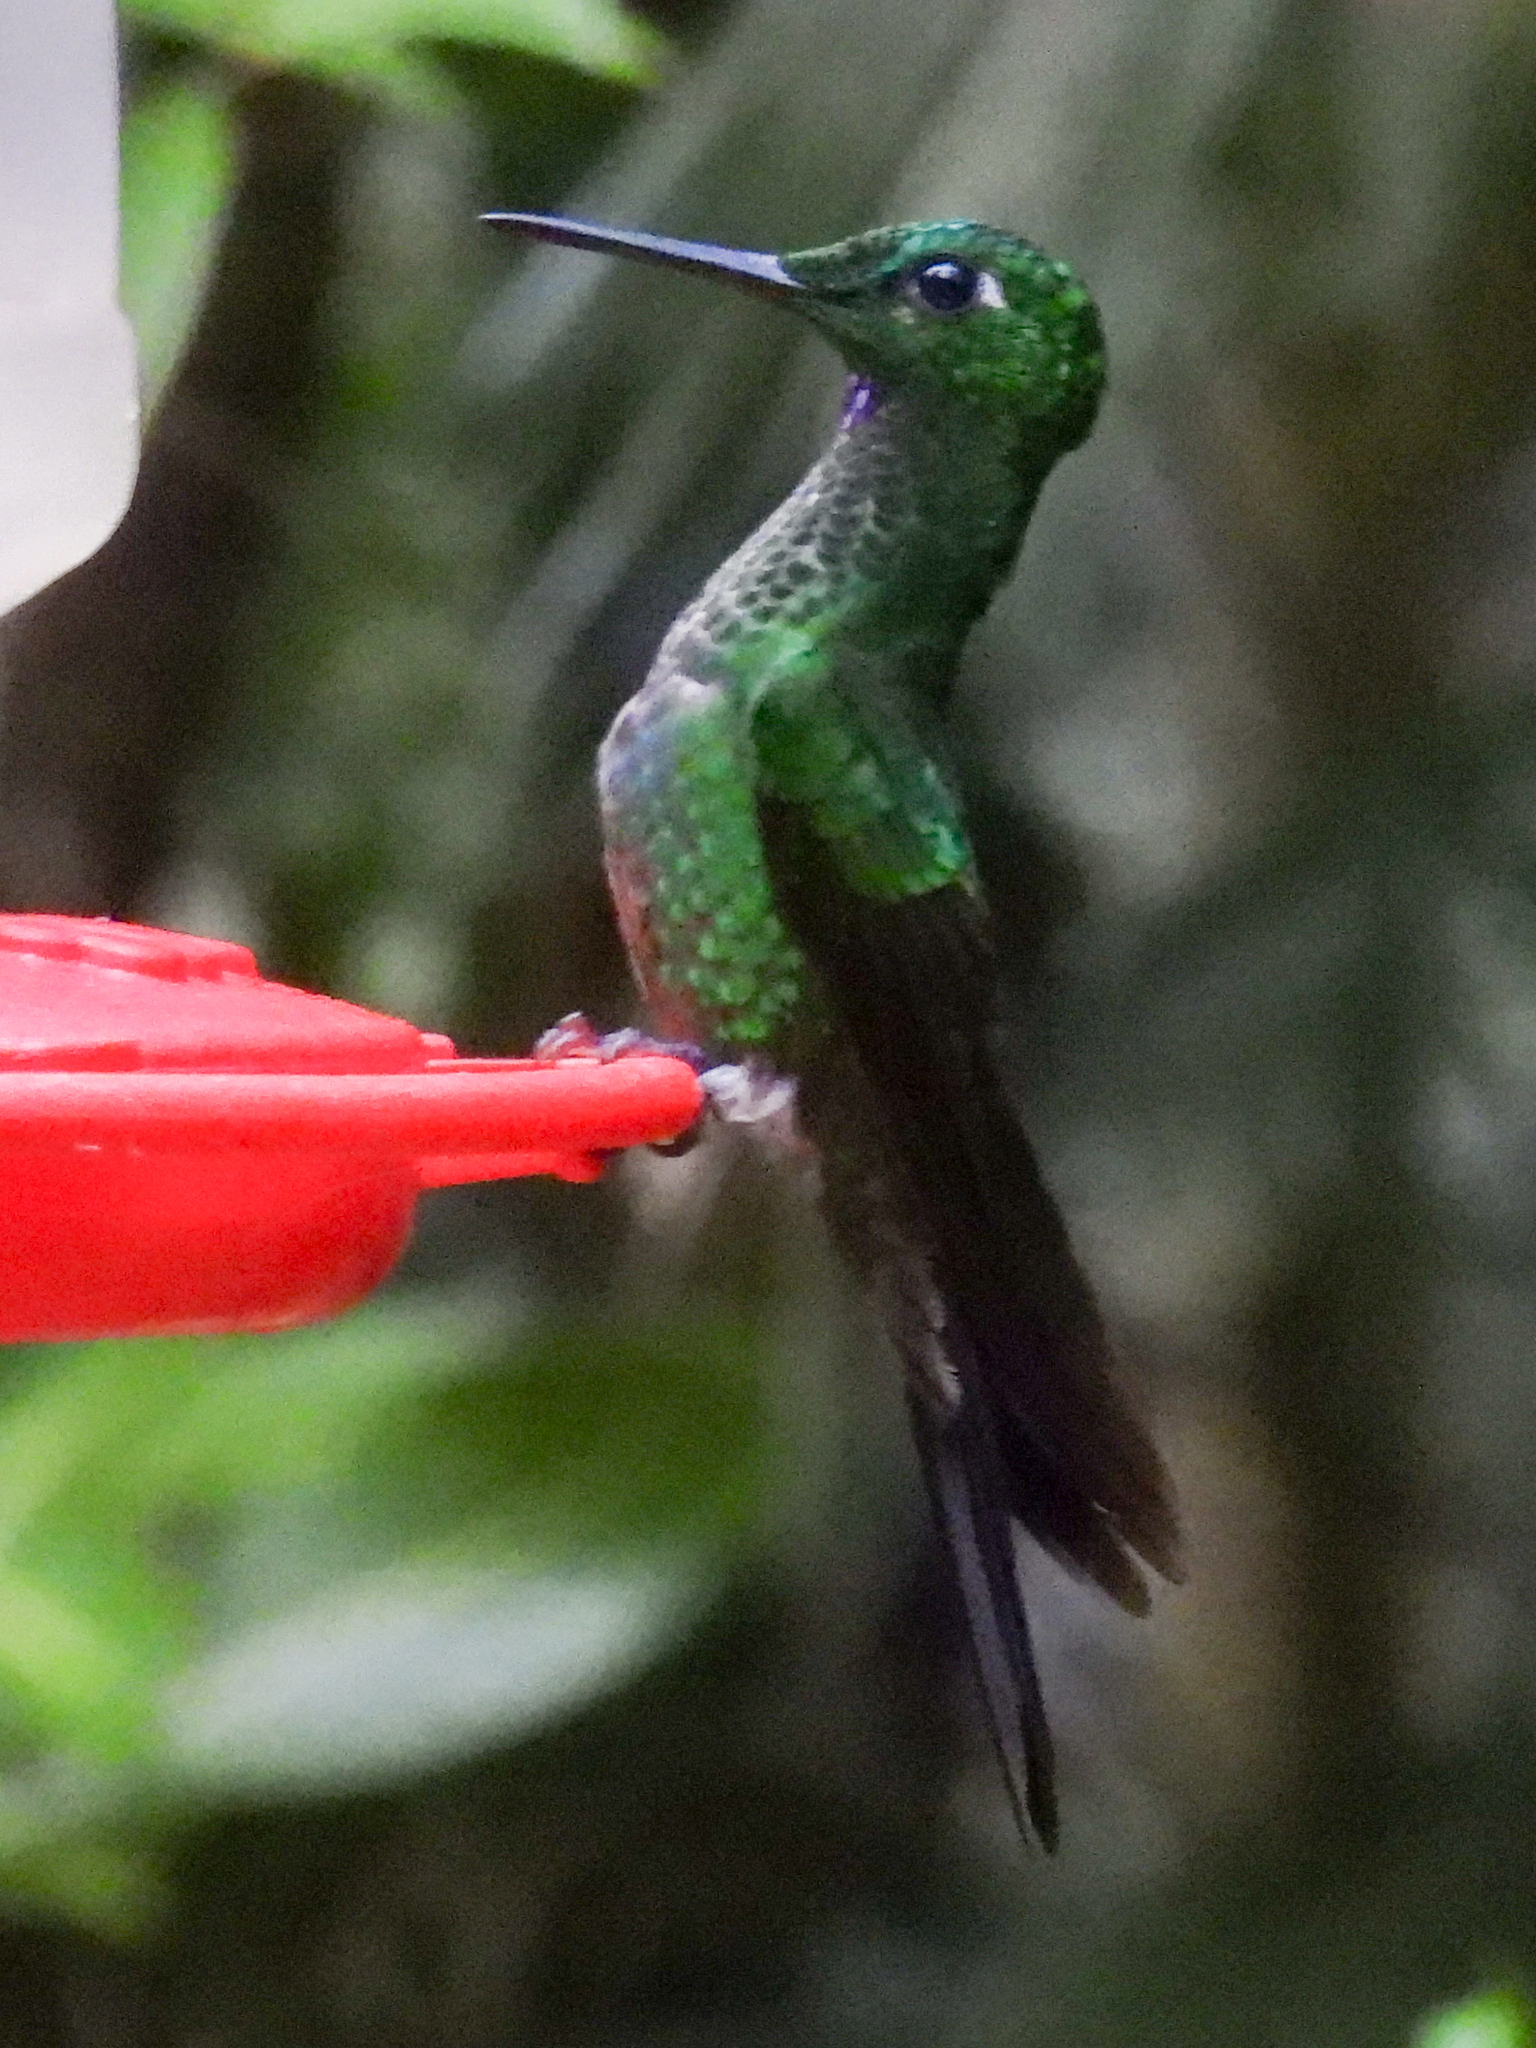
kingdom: Animalia
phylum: Chordata
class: Aves
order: Apodiformes
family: Trochilidae
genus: Heliodoxa
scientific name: Heliodoxa jacula
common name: Green-crowned brilliant
